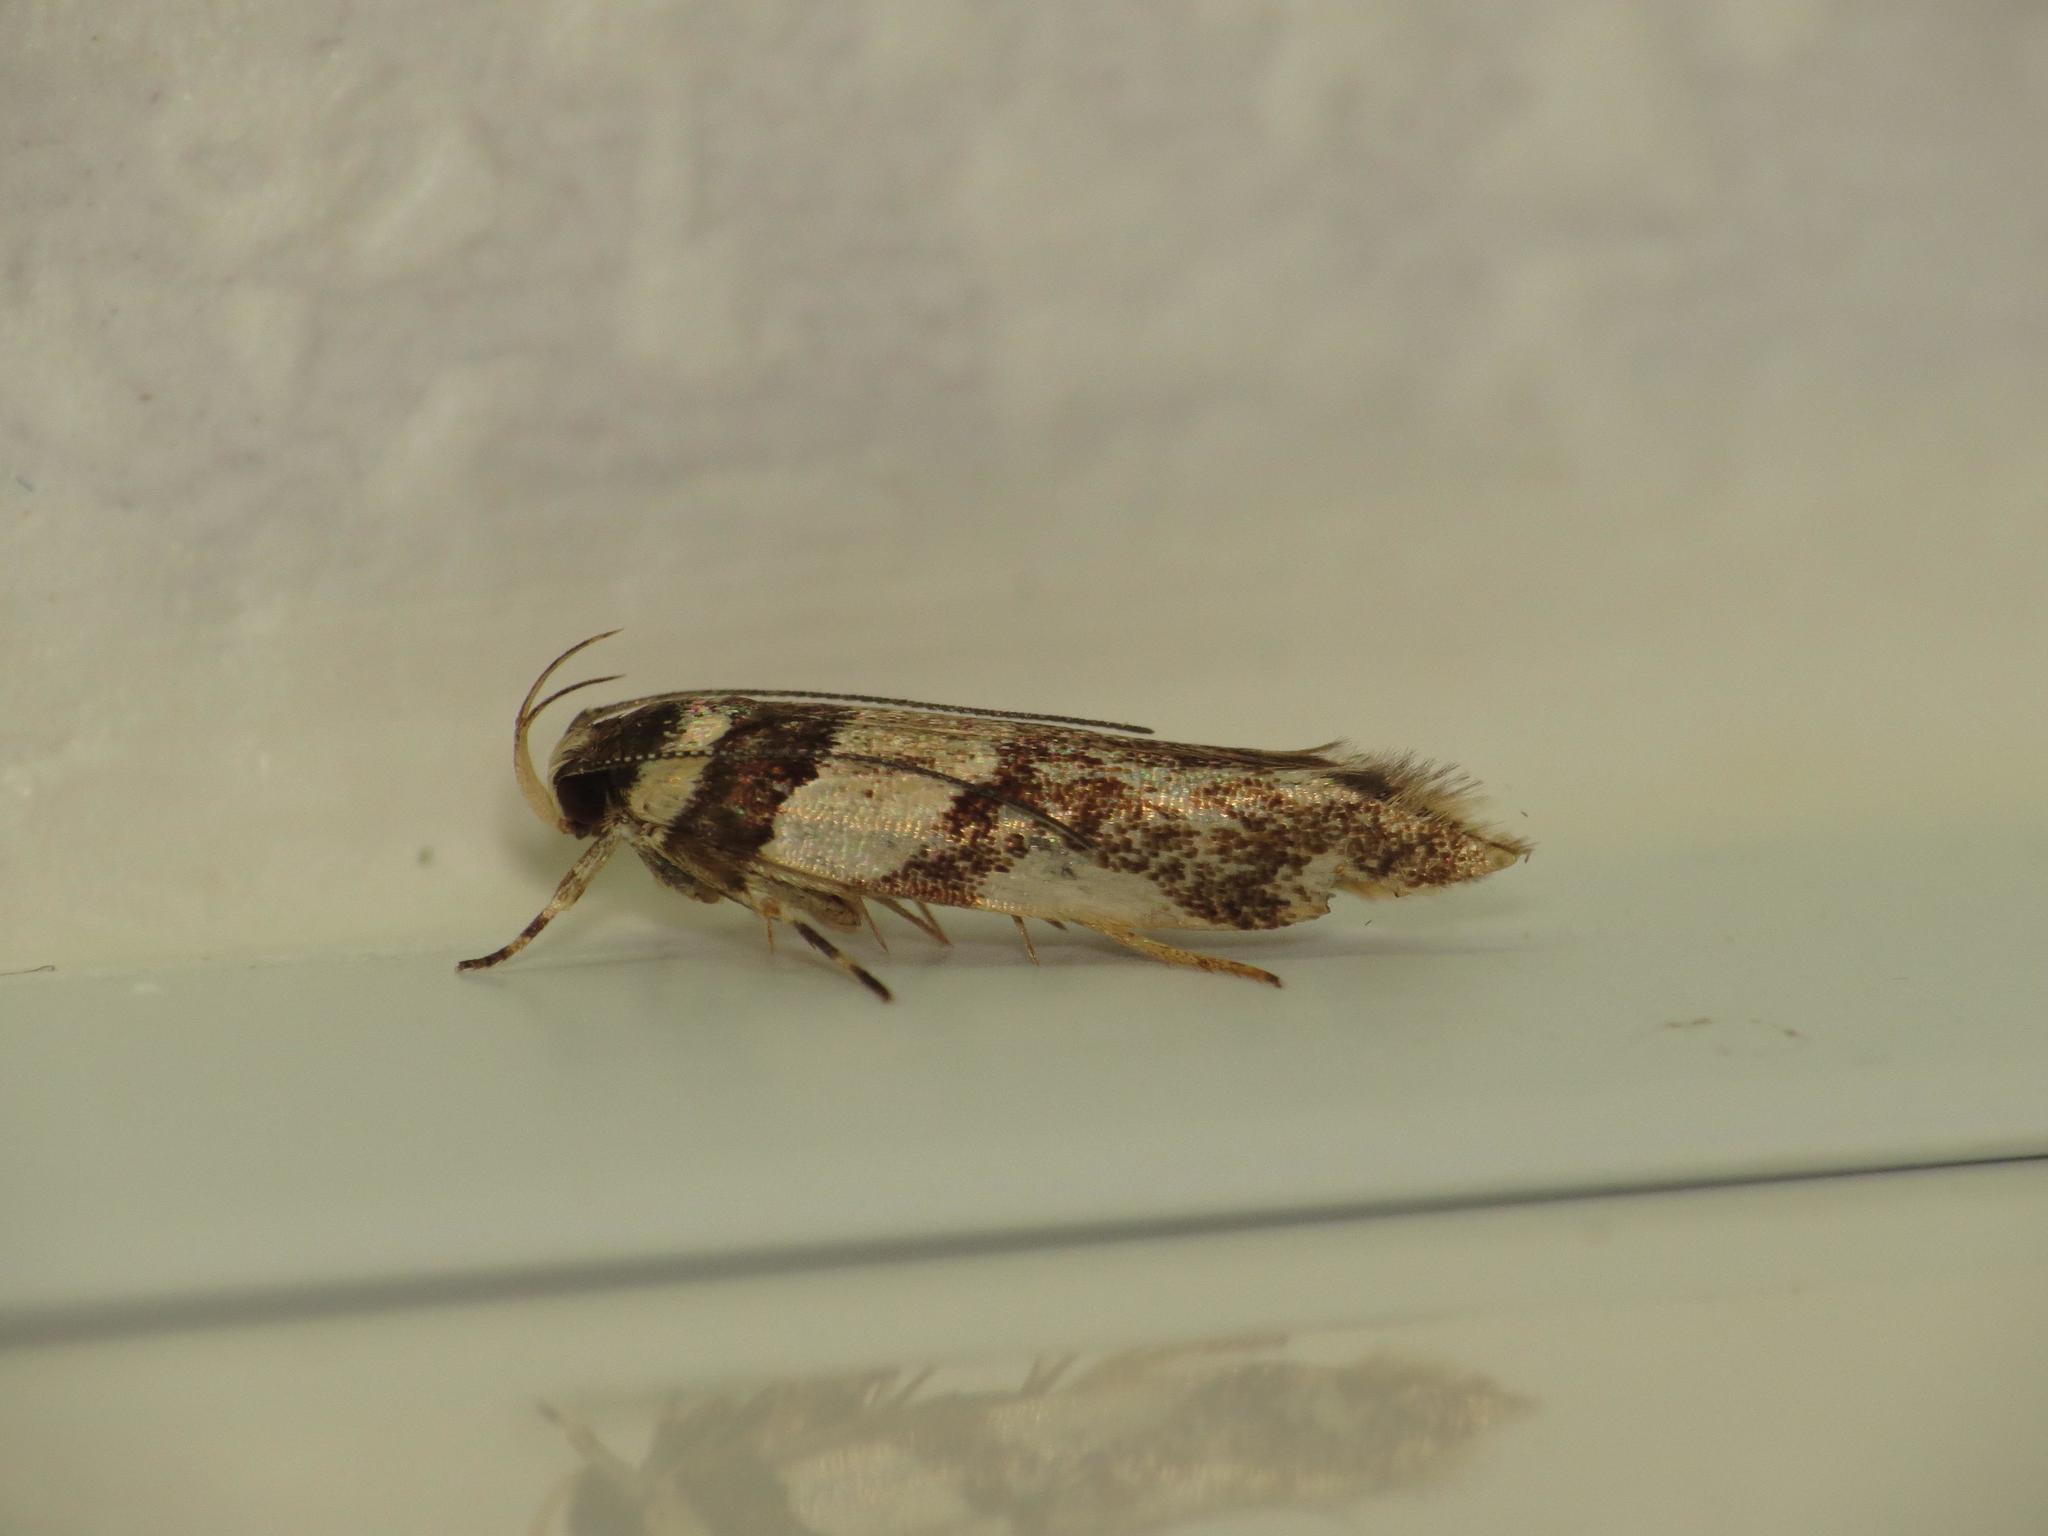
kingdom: Animalia
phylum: Arthropoda
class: Insecta
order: Lepidoptera
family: Cosmopterigidae
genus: Macrobathra
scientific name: Macrobathra desmotoma
